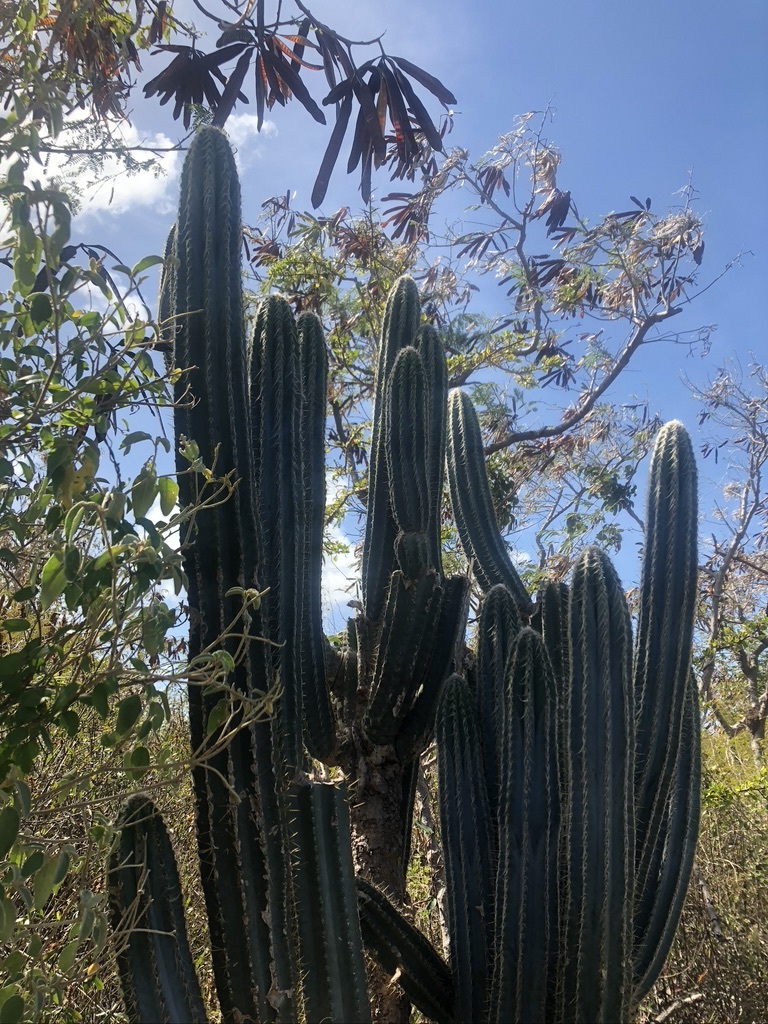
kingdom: Plantae
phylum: Tracheophyta
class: Magnoliopsida
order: Caryophyllales
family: Cactaceae
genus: Pilosocereus
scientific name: Pilosocereus armatus
